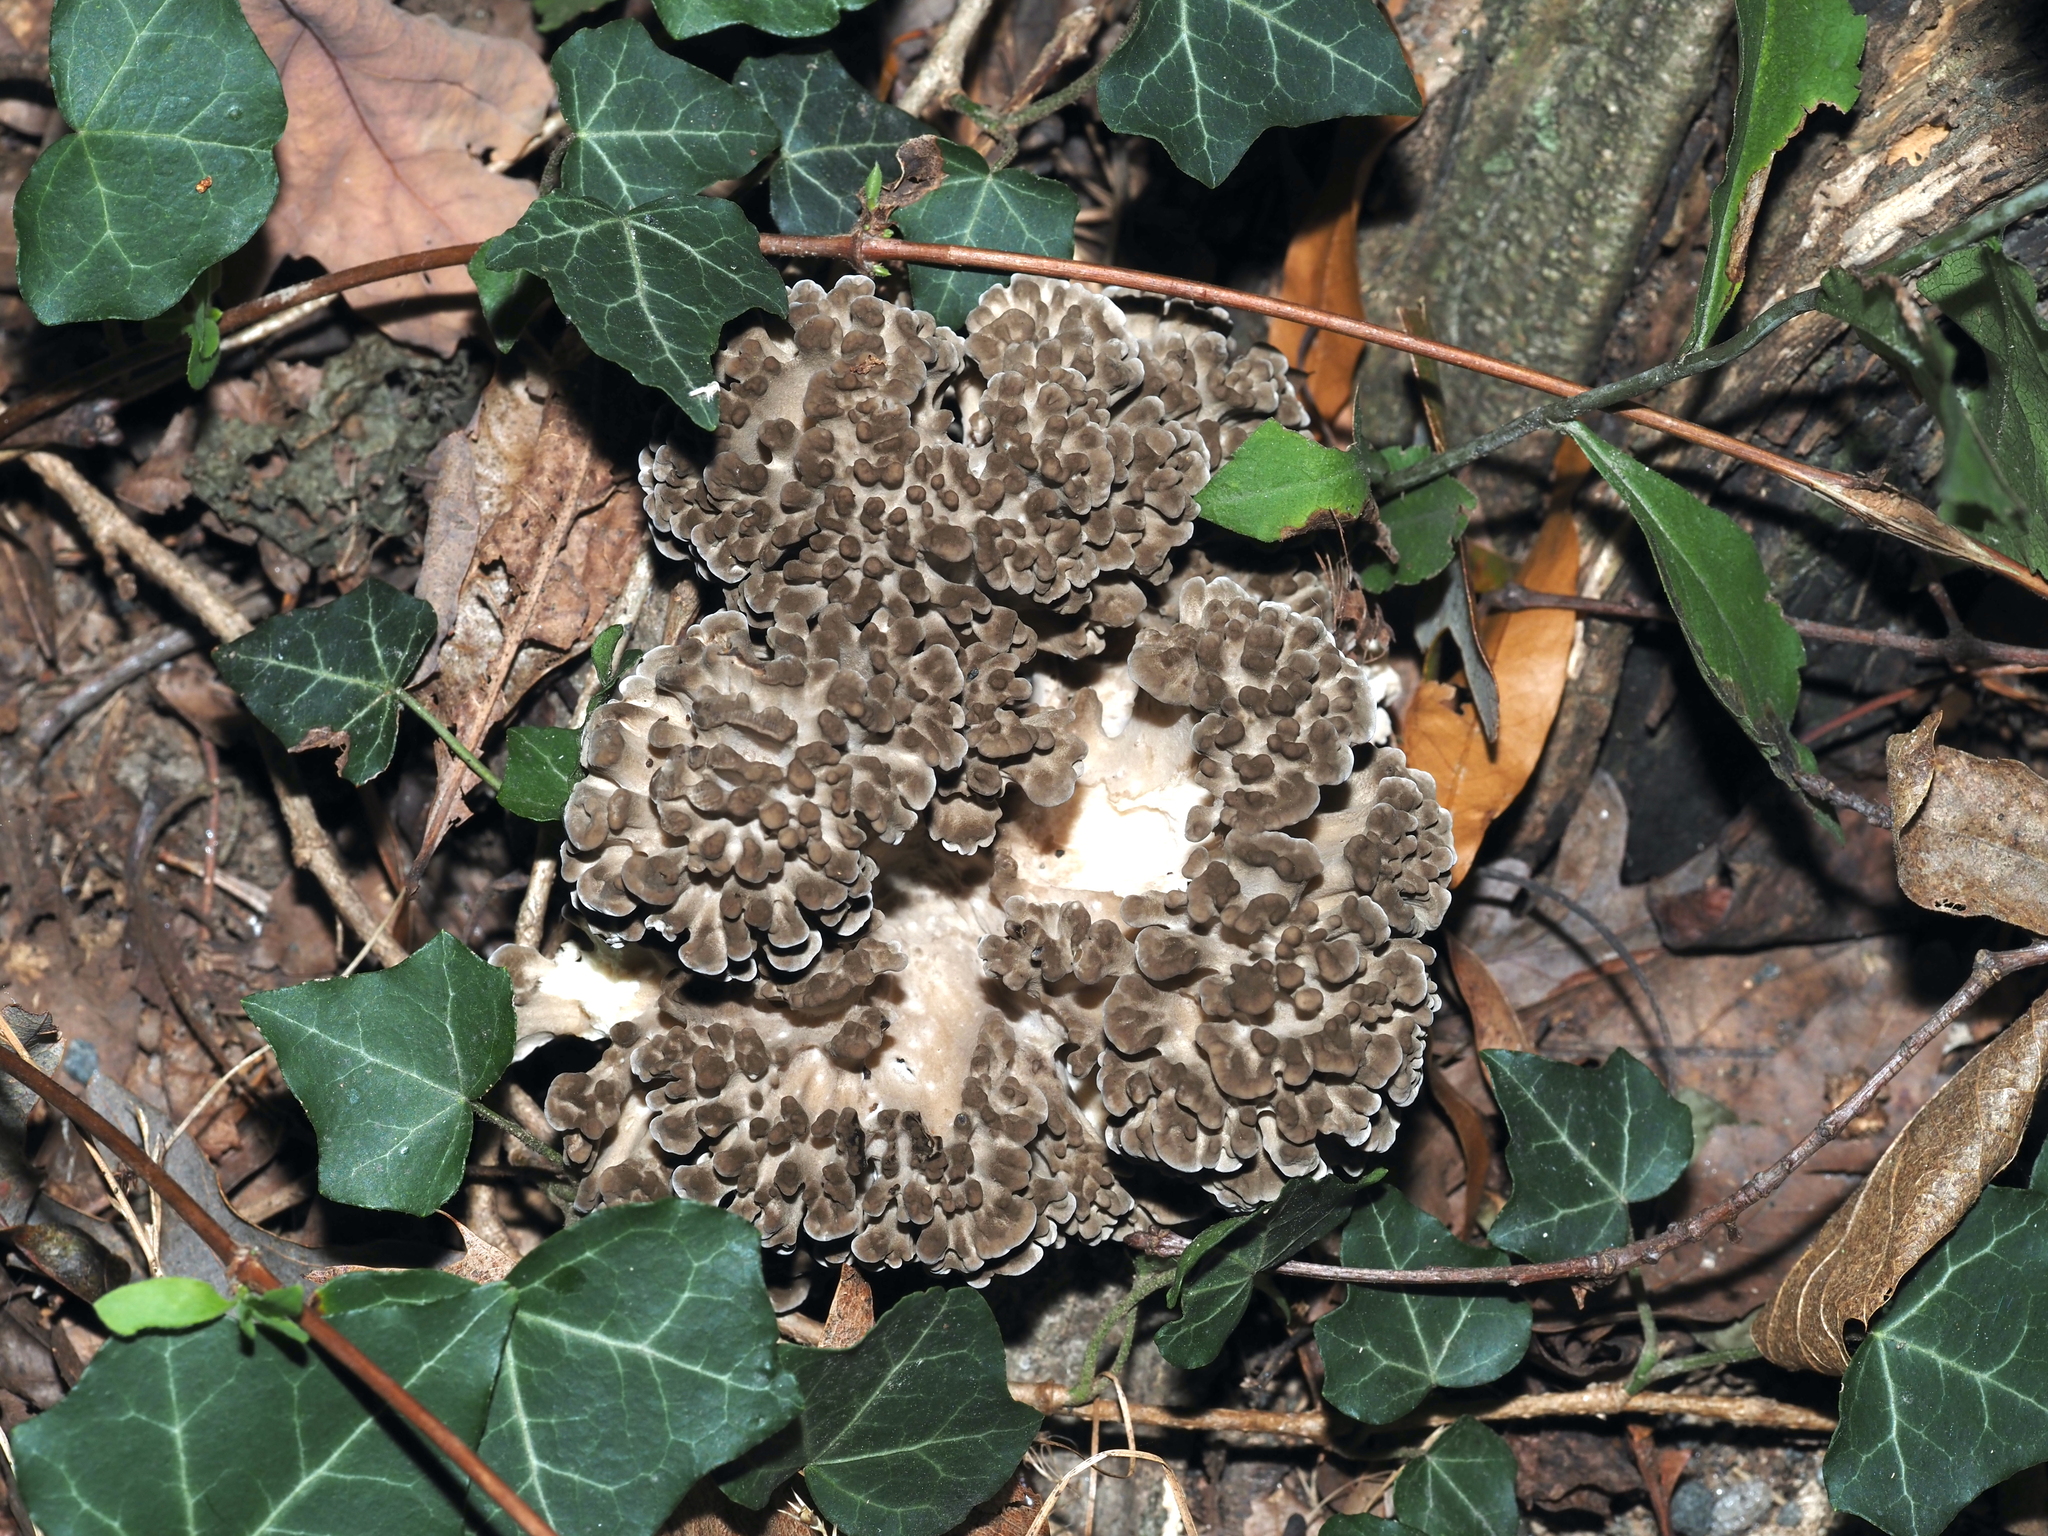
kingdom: Fungi
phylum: Basidiomycota
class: Agaricomycetes
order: Polyporales
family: Grifolaceae
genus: Grifola
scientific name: Grifola frondosa
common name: Hen of the woods
